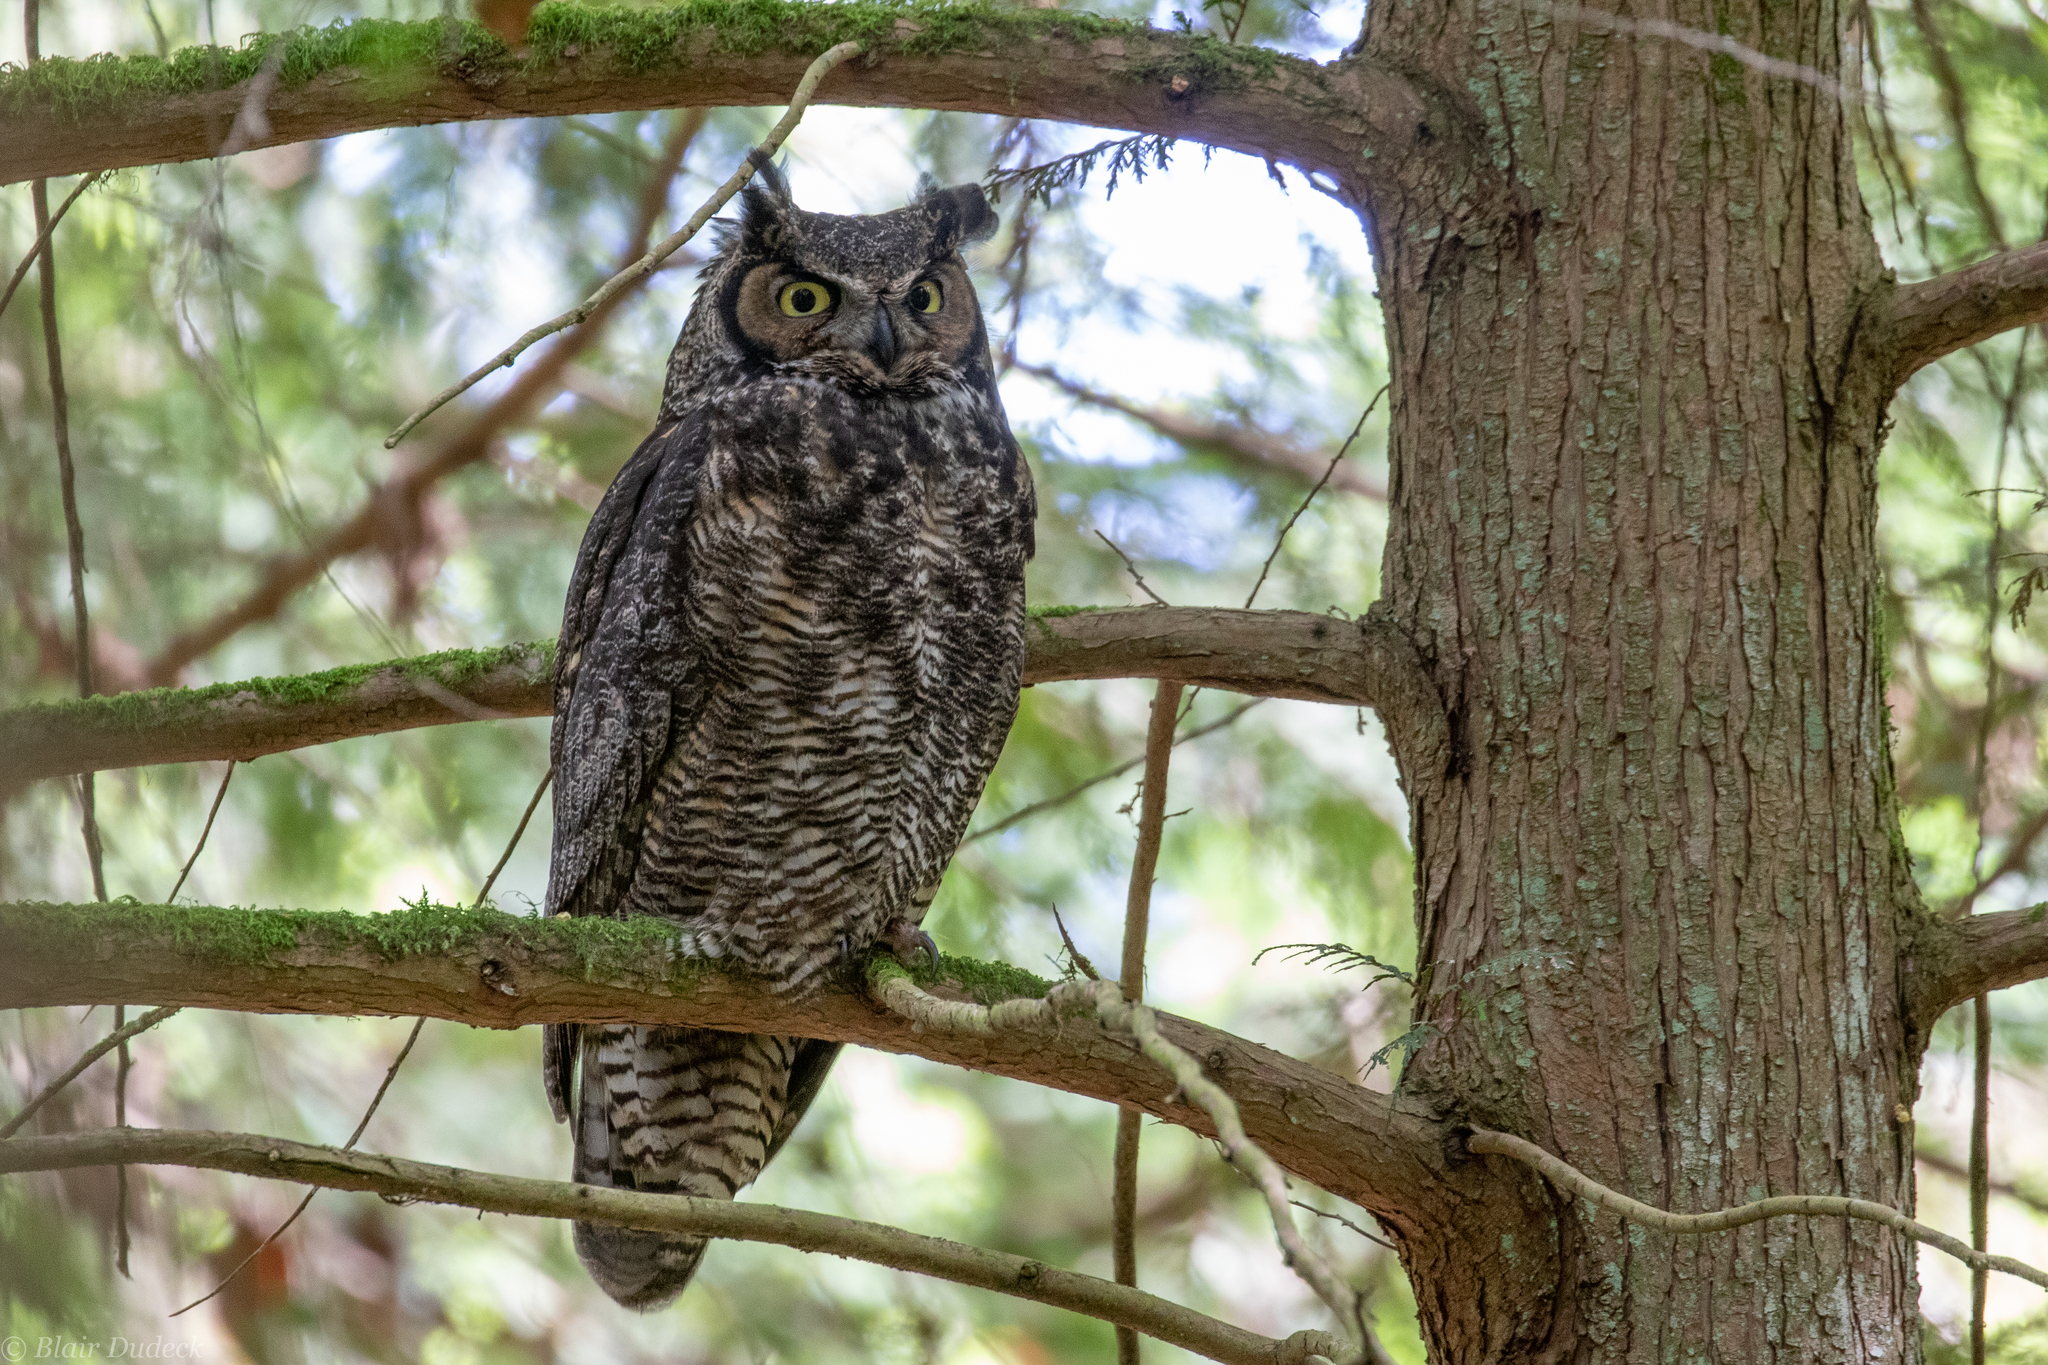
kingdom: Animalia
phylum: Chordata
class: Aves
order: Strigiformes
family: Strigidae
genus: Bubo
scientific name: Bubo virginianus
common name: Great horned owl
